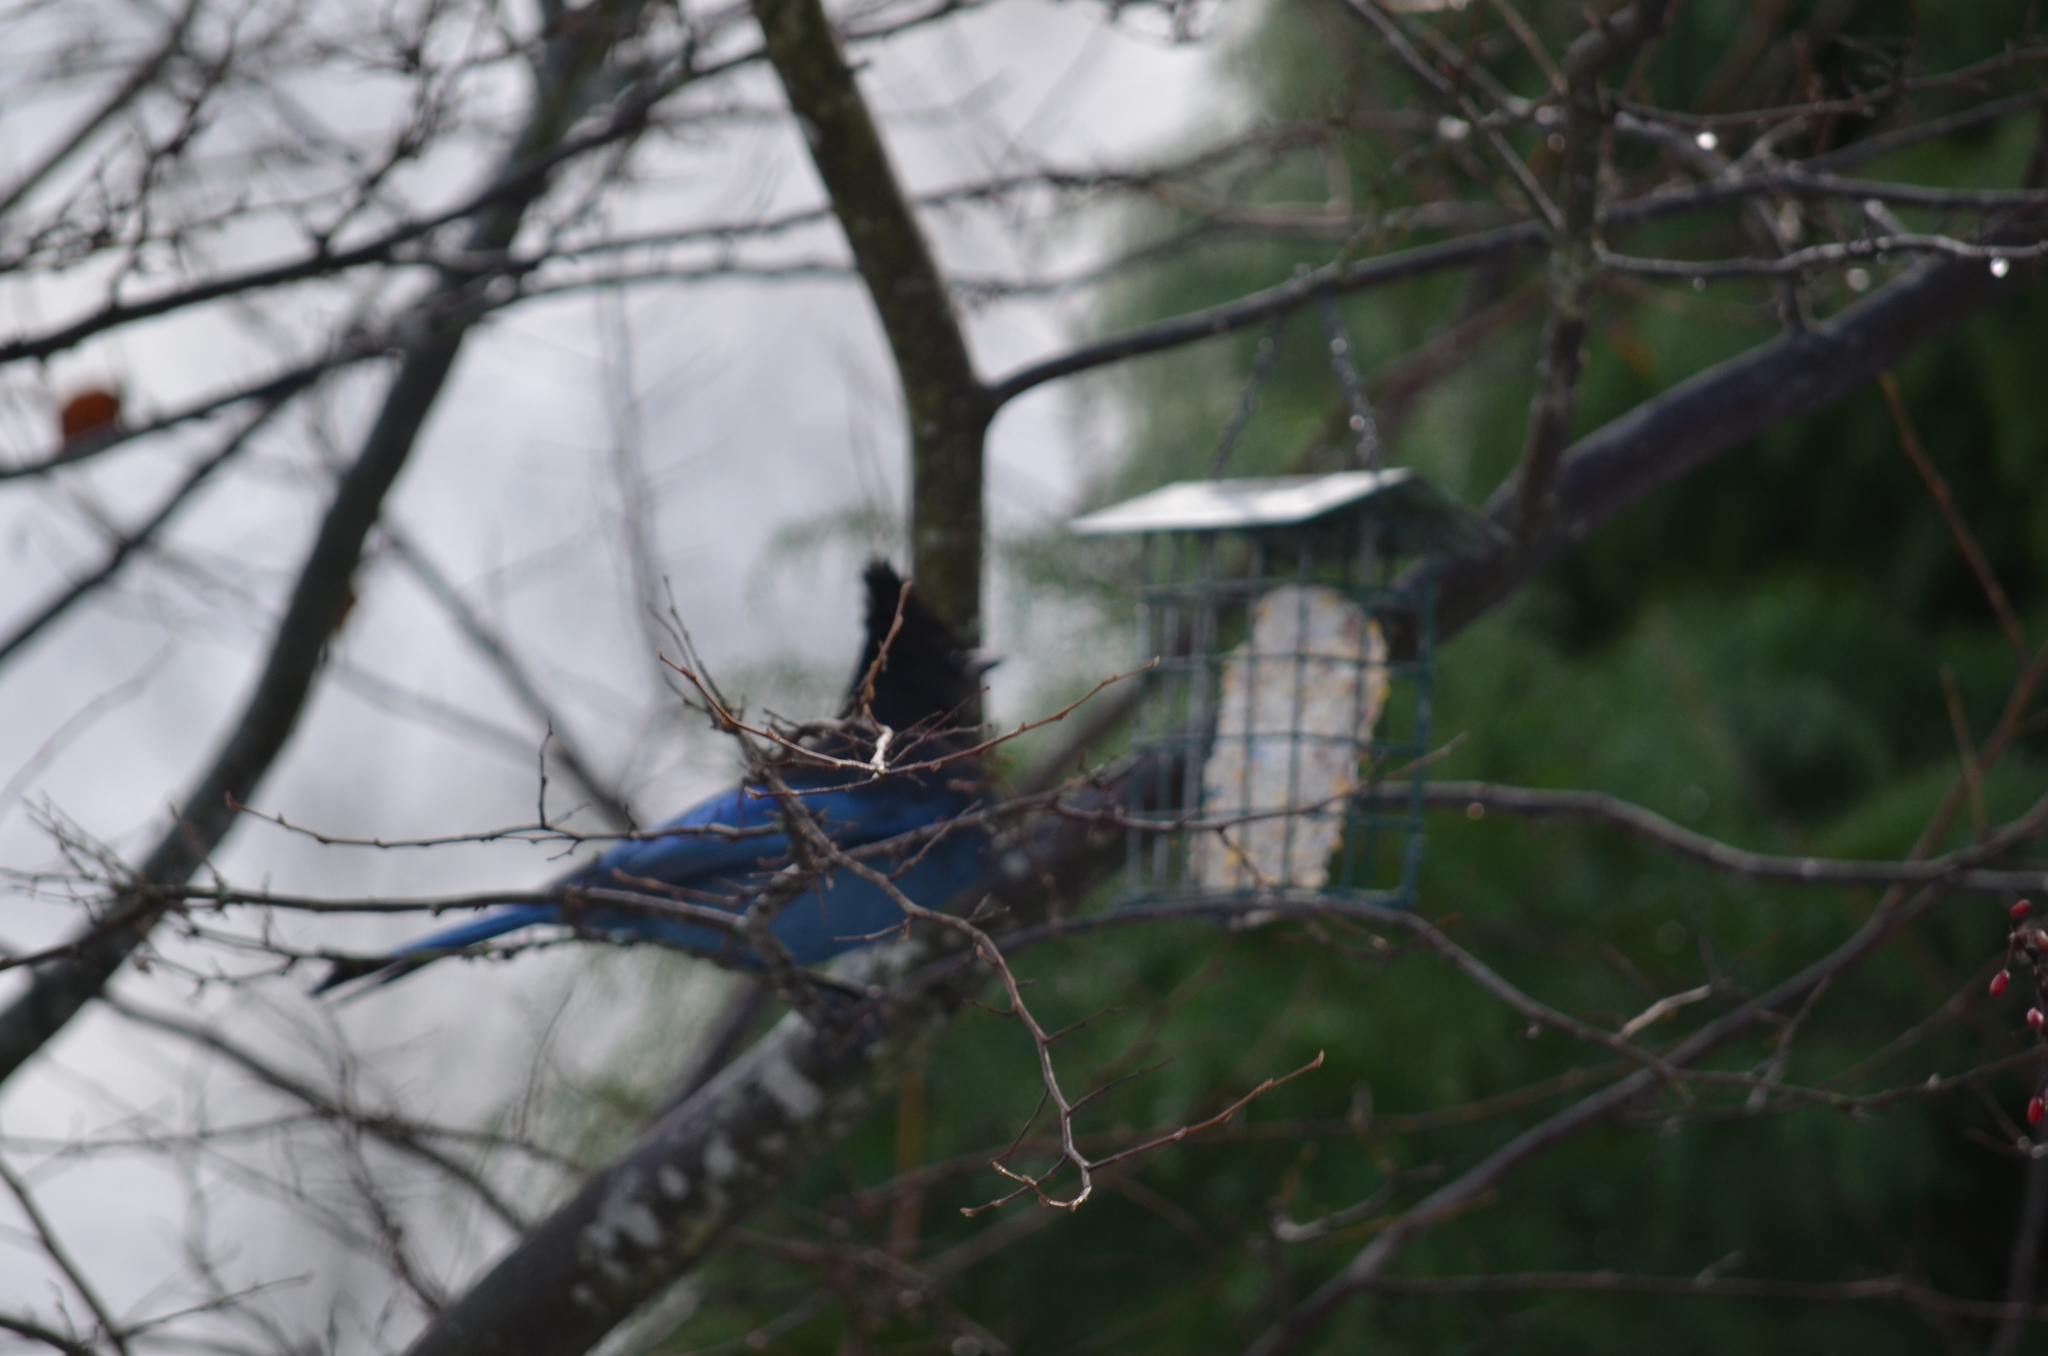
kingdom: Animalia
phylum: Chordata
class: Aves
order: Passeriformes
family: Corvidae
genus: Cyanocitta
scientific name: Cyanocitta stelleri
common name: Steller's jay
